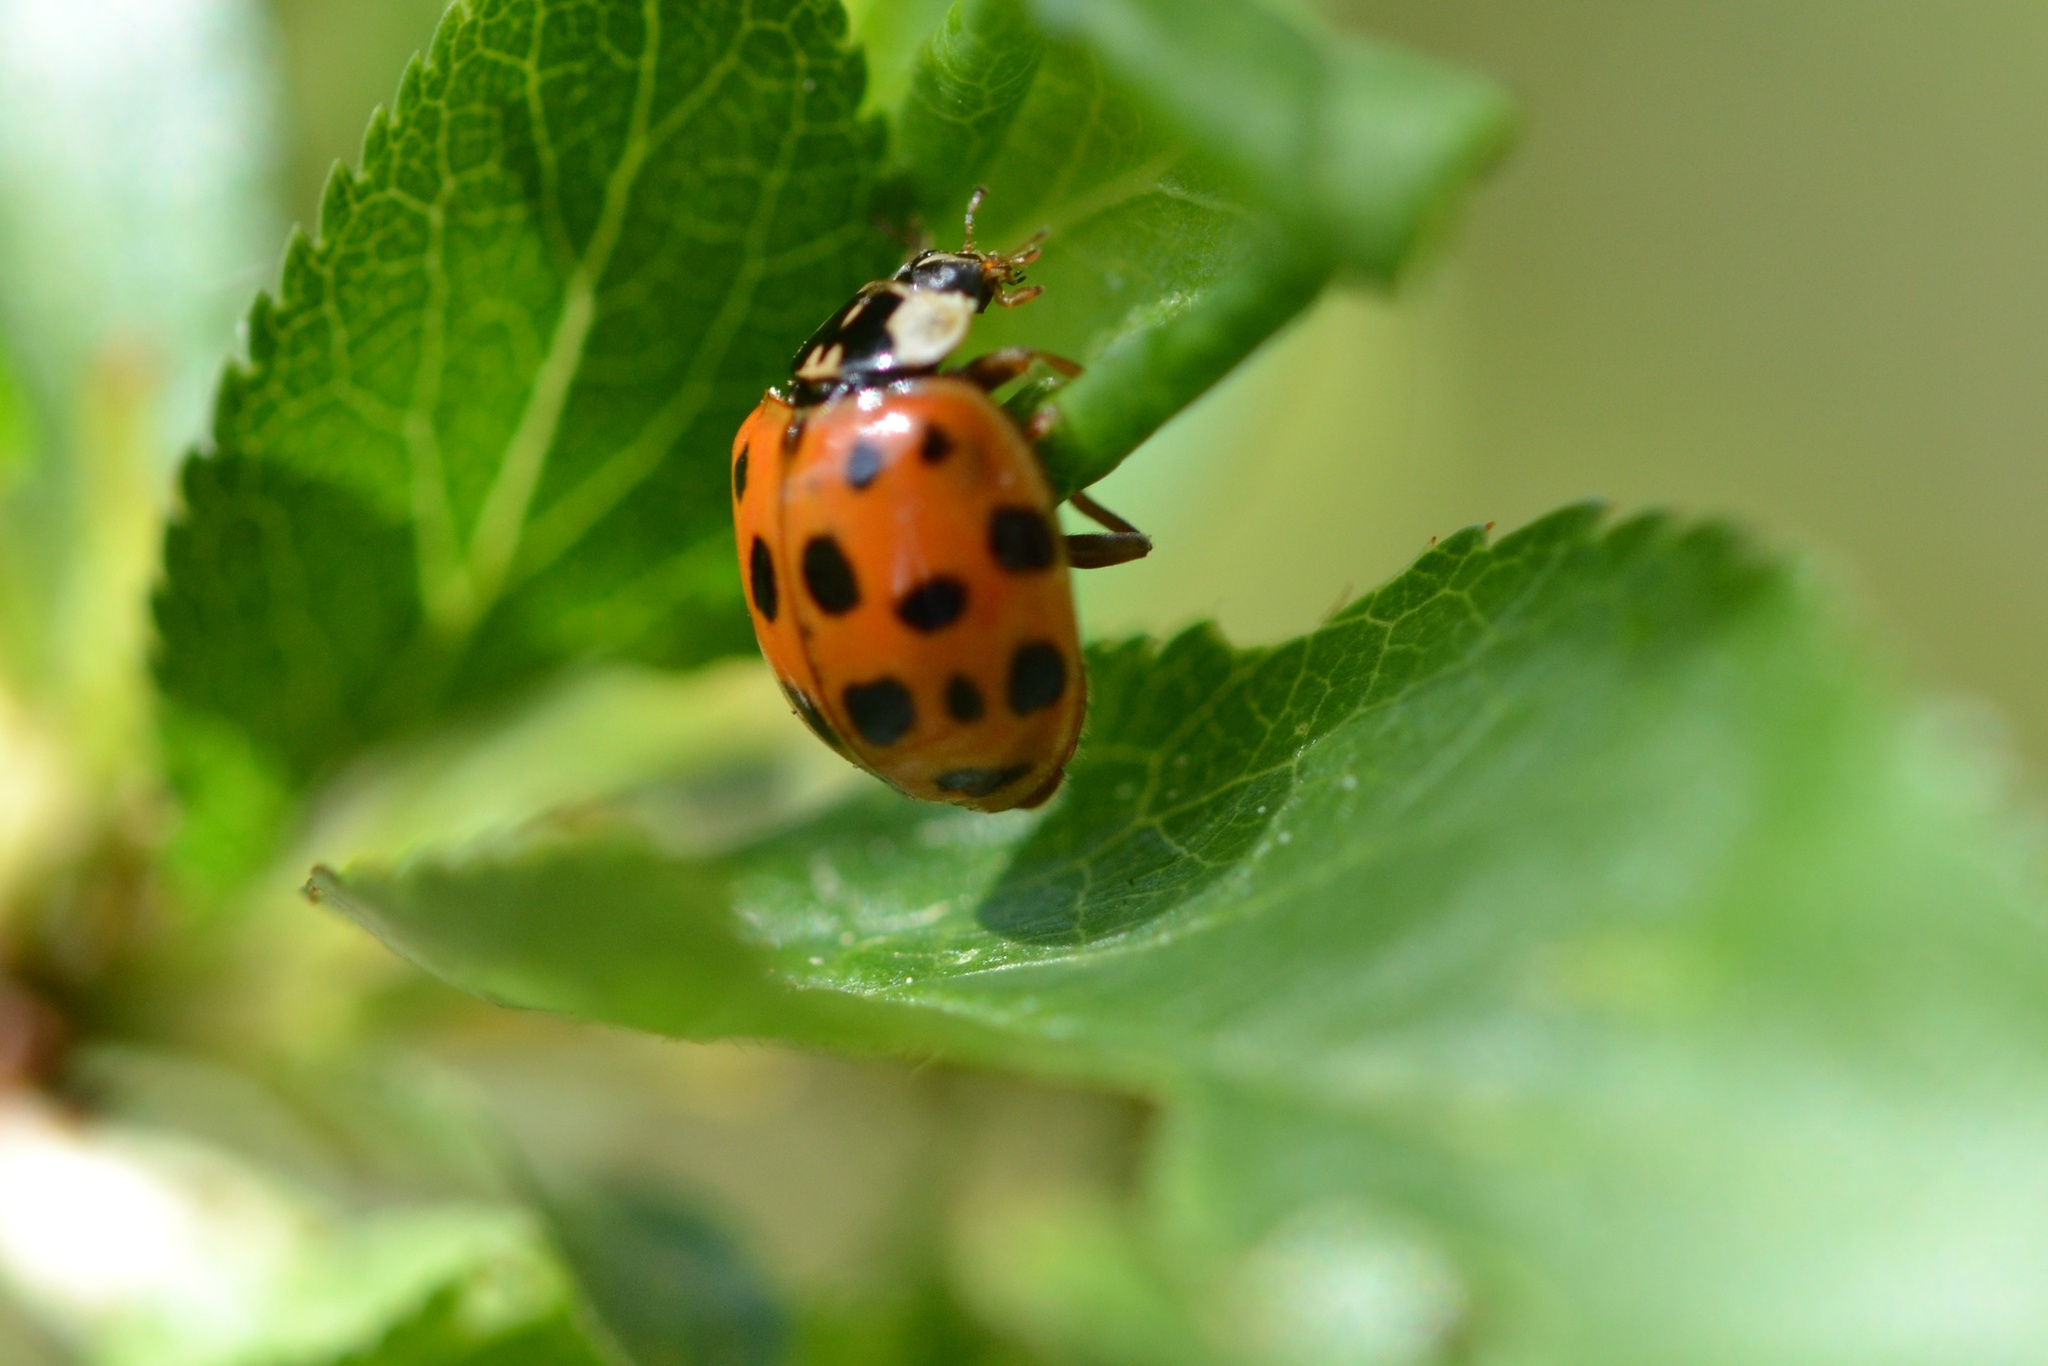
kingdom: Animalia
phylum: Arthropoda
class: Insecta
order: Coleoptera
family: Coccinellidae
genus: Harmonia
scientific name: Harmonia axyridis
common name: Harlequin ladybird
